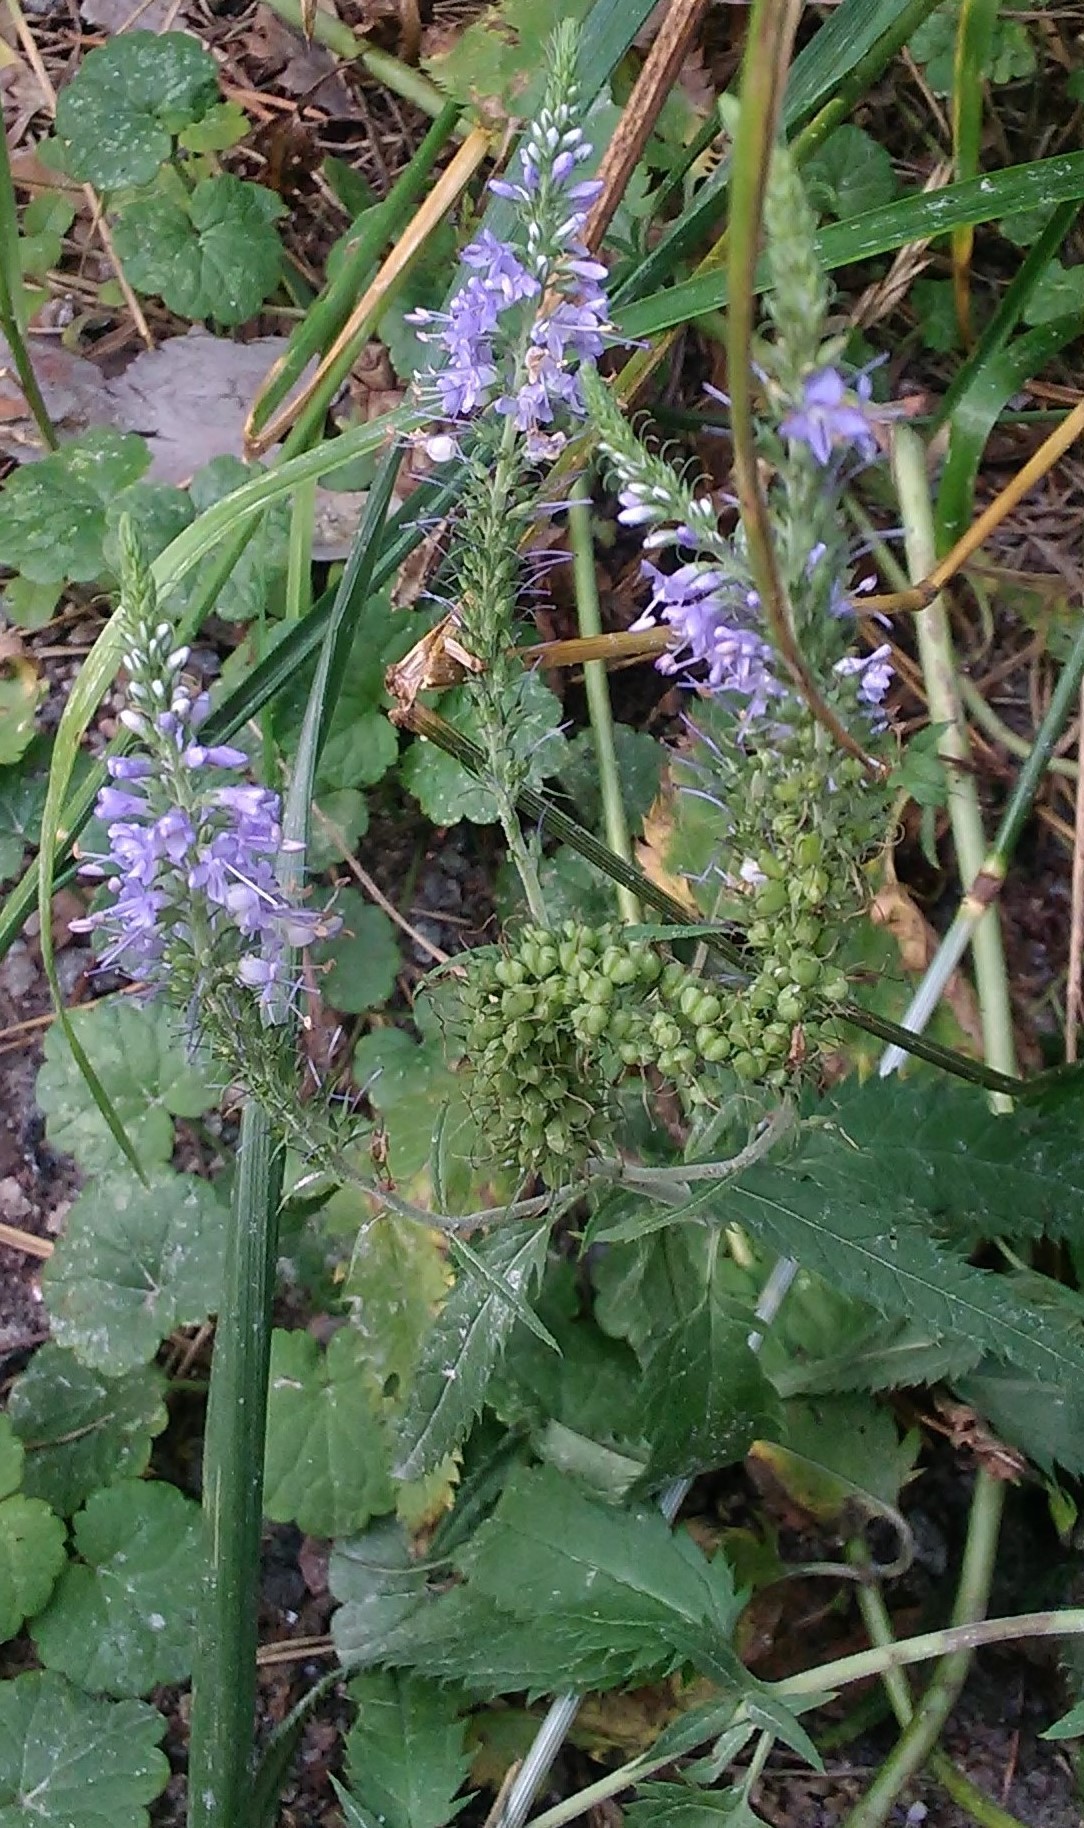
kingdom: Plantae
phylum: Tracheophyta
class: Magnoliopsida
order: Lamiales
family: Plantaginaceae
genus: Veronica
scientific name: Veronica longifolia
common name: Garden speedwell
